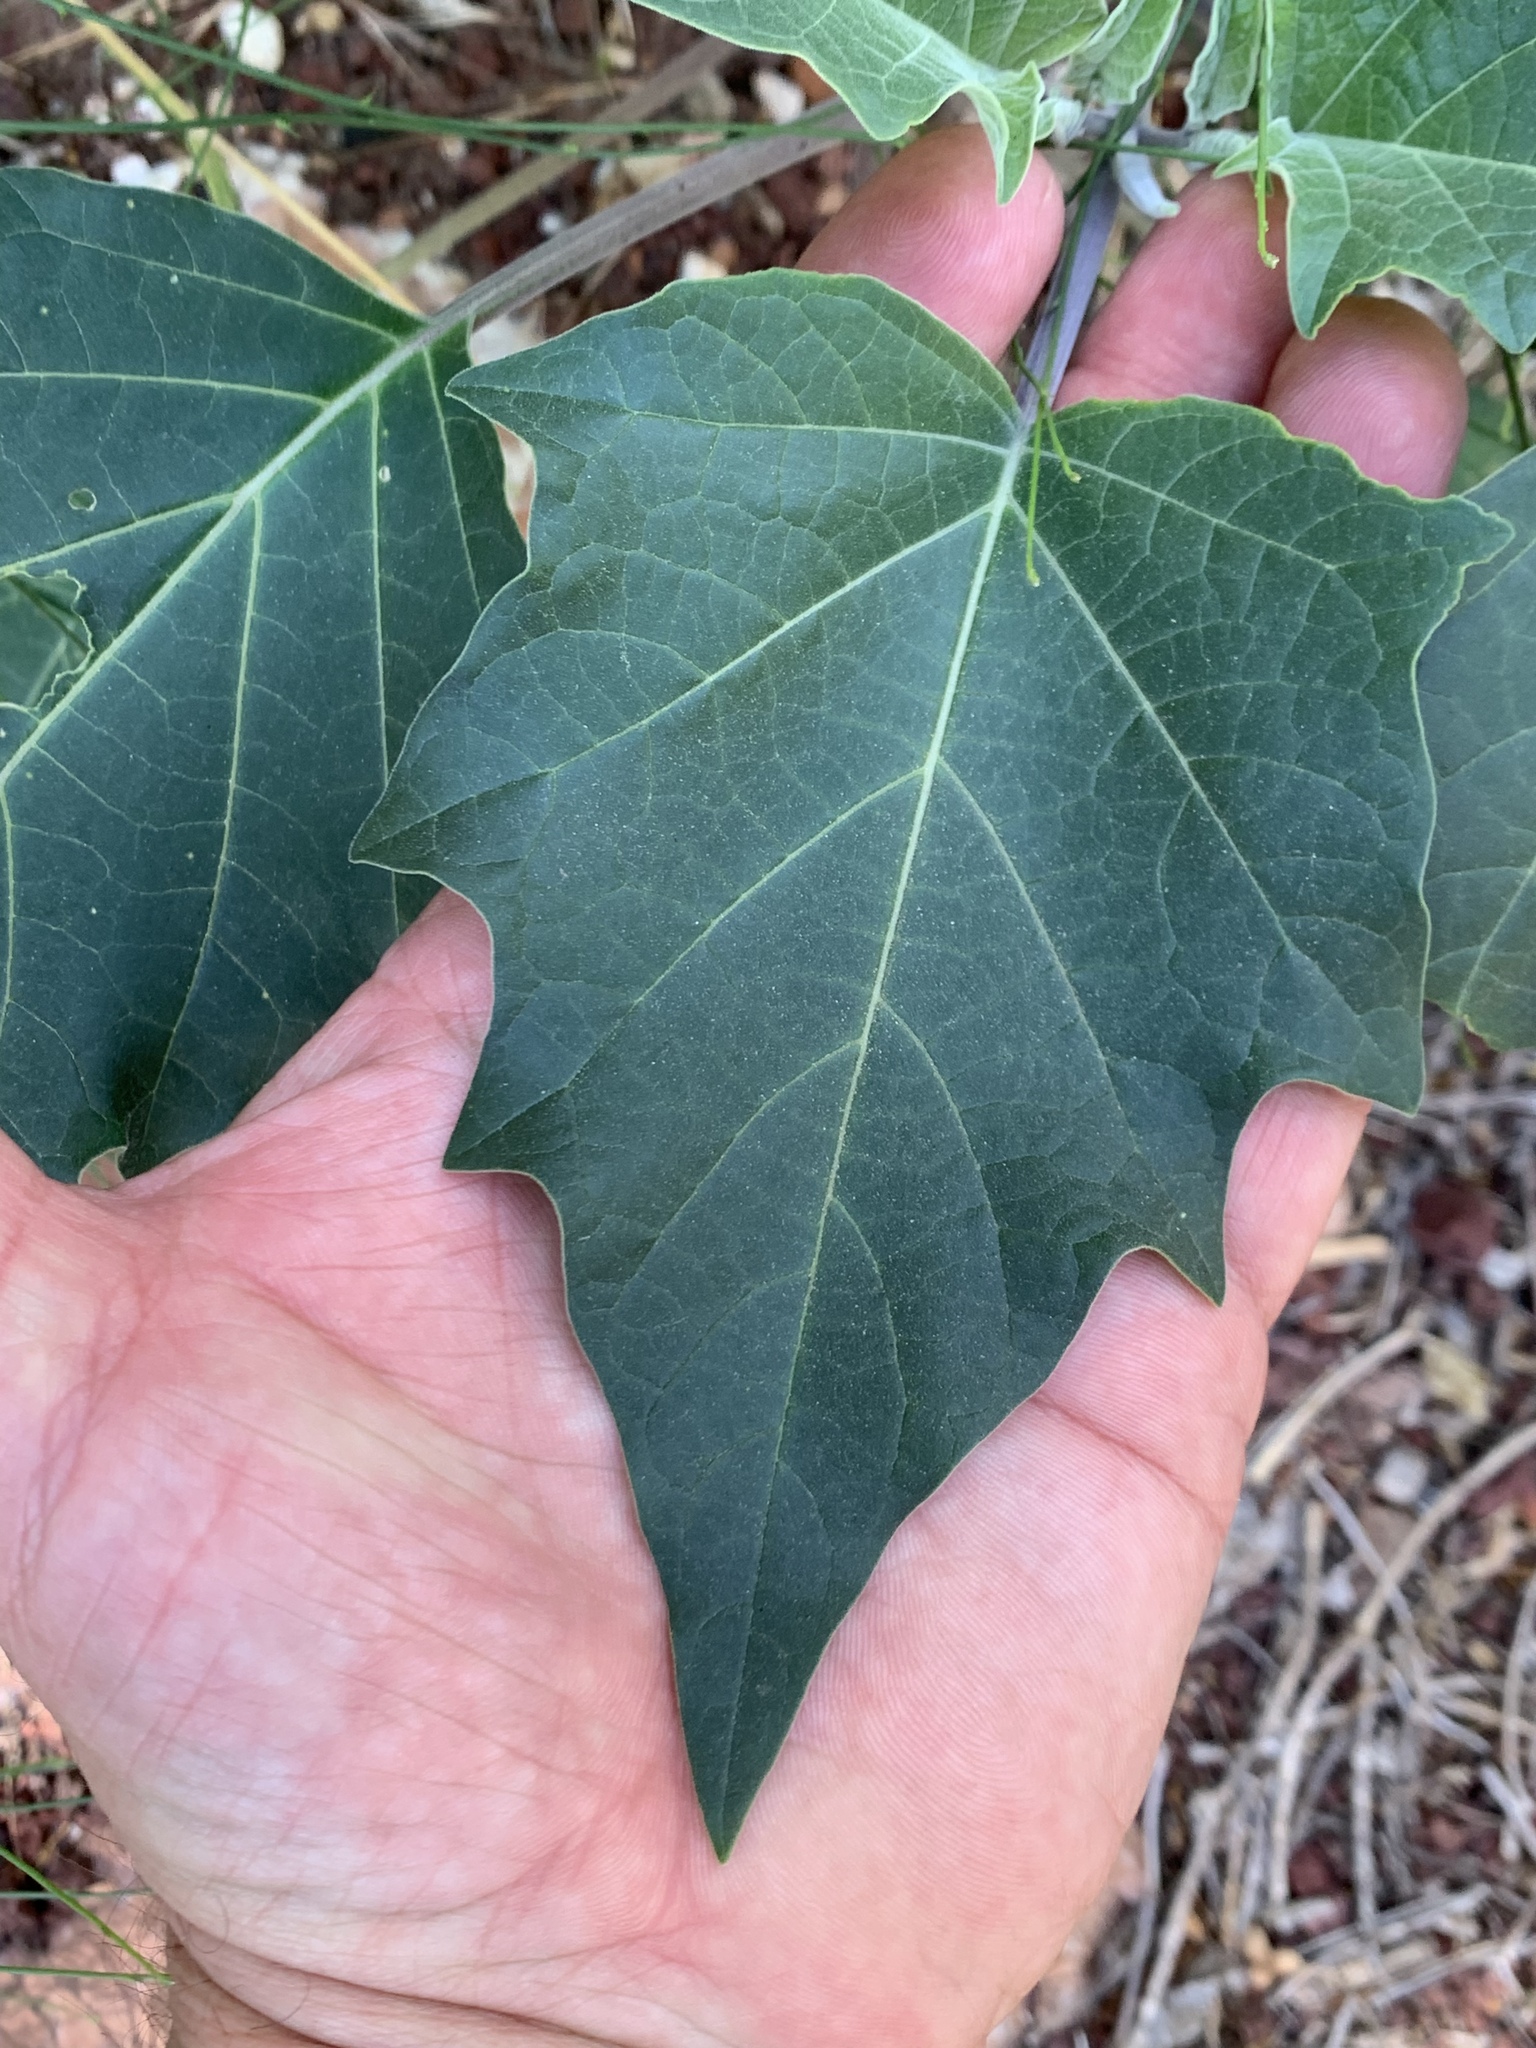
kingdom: Plantae
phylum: Tracheophyta
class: Magnoliopsida
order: Solanales
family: Solanaceae
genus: Datura
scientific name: Datura wrightii
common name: Sacred thorn-apple
